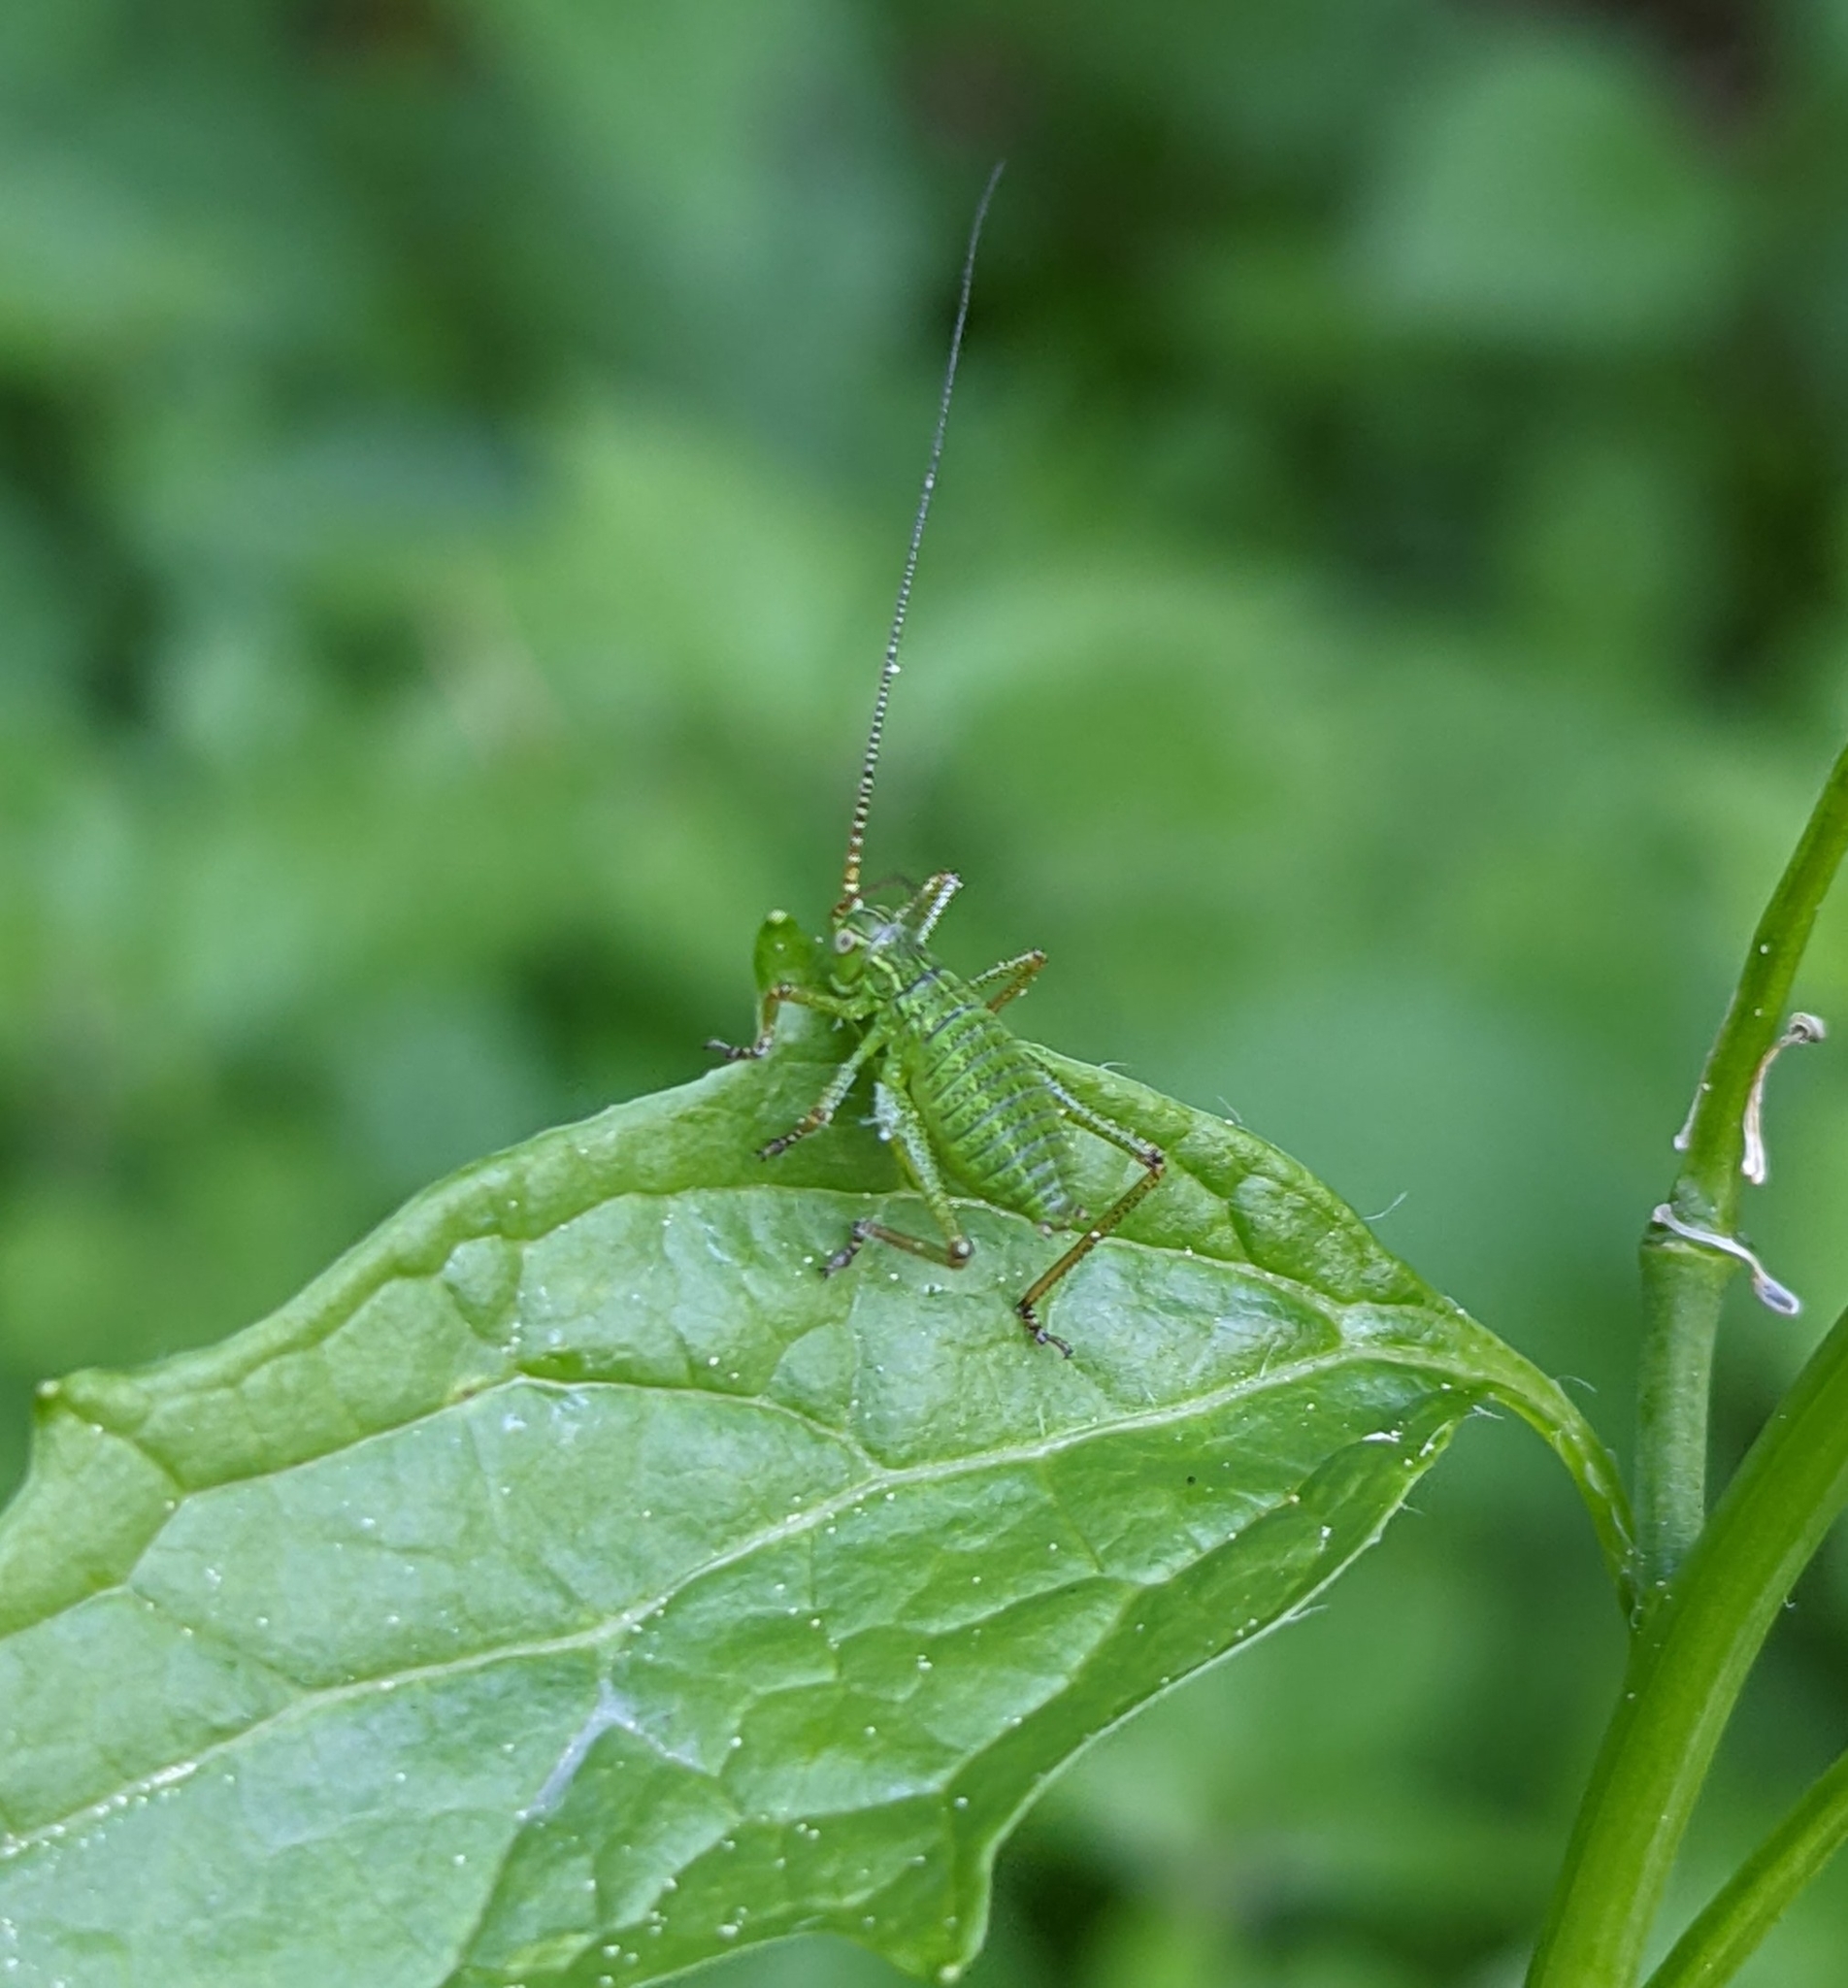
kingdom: Animalia
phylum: Arthropoda
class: Insecta
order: Orthoptera
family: Tettigoniidae
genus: Barbitistes
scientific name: Barbitistes serricauda
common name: Saw-tailed bush-cricket
